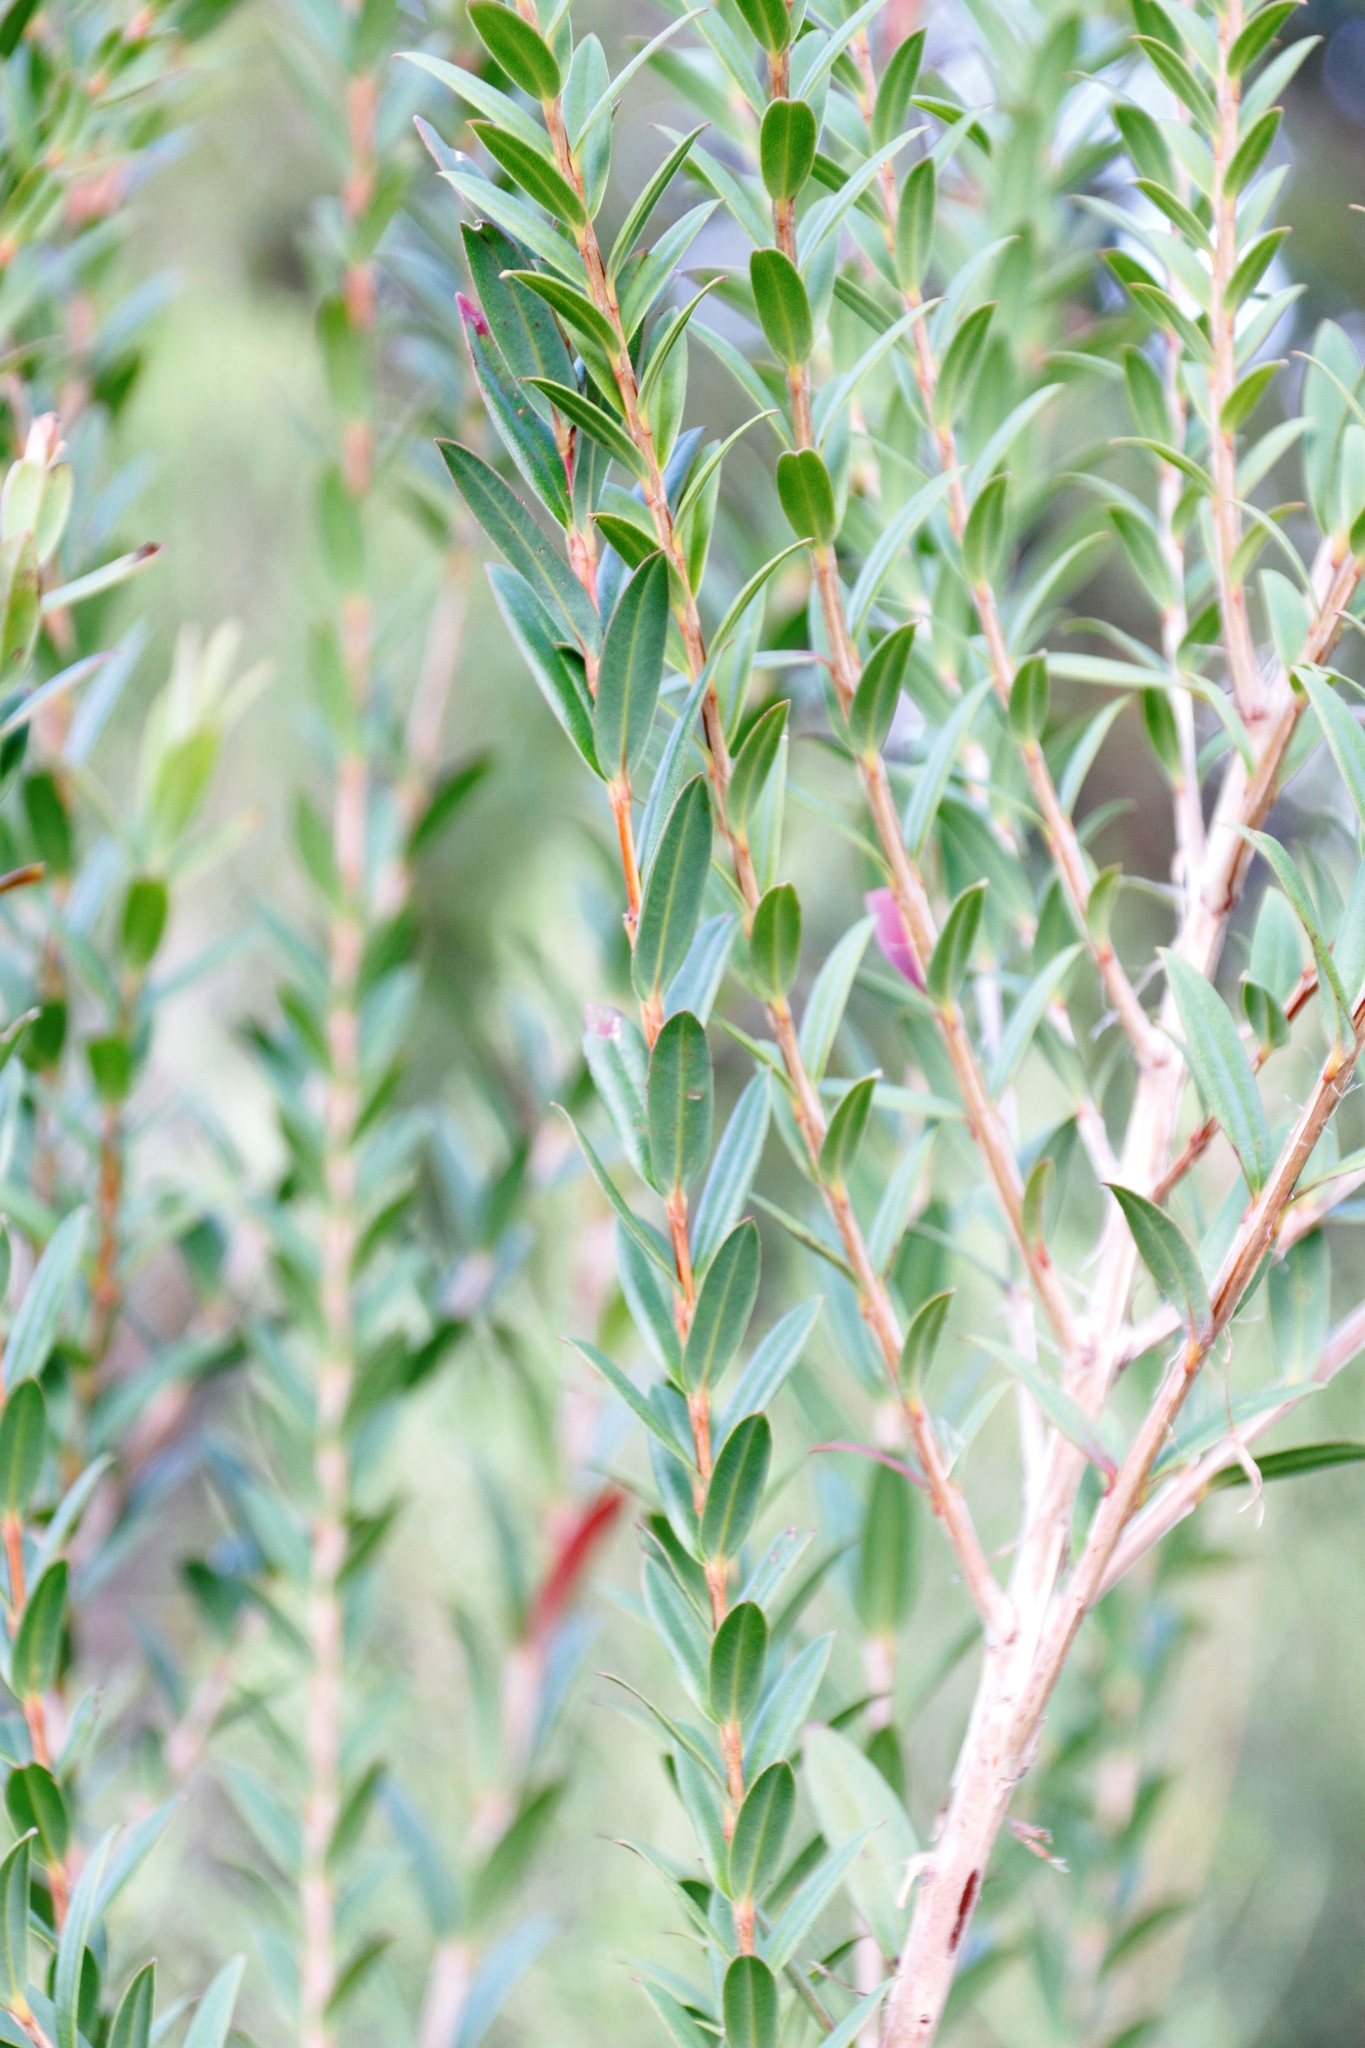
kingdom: Plantae
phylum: Tracheophyta
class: Magnoliopsida
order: Myrtales
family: Myrtaceae
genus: Melaleuca
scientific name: Melaleuca hypericifolia
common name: Red honey myrtle
